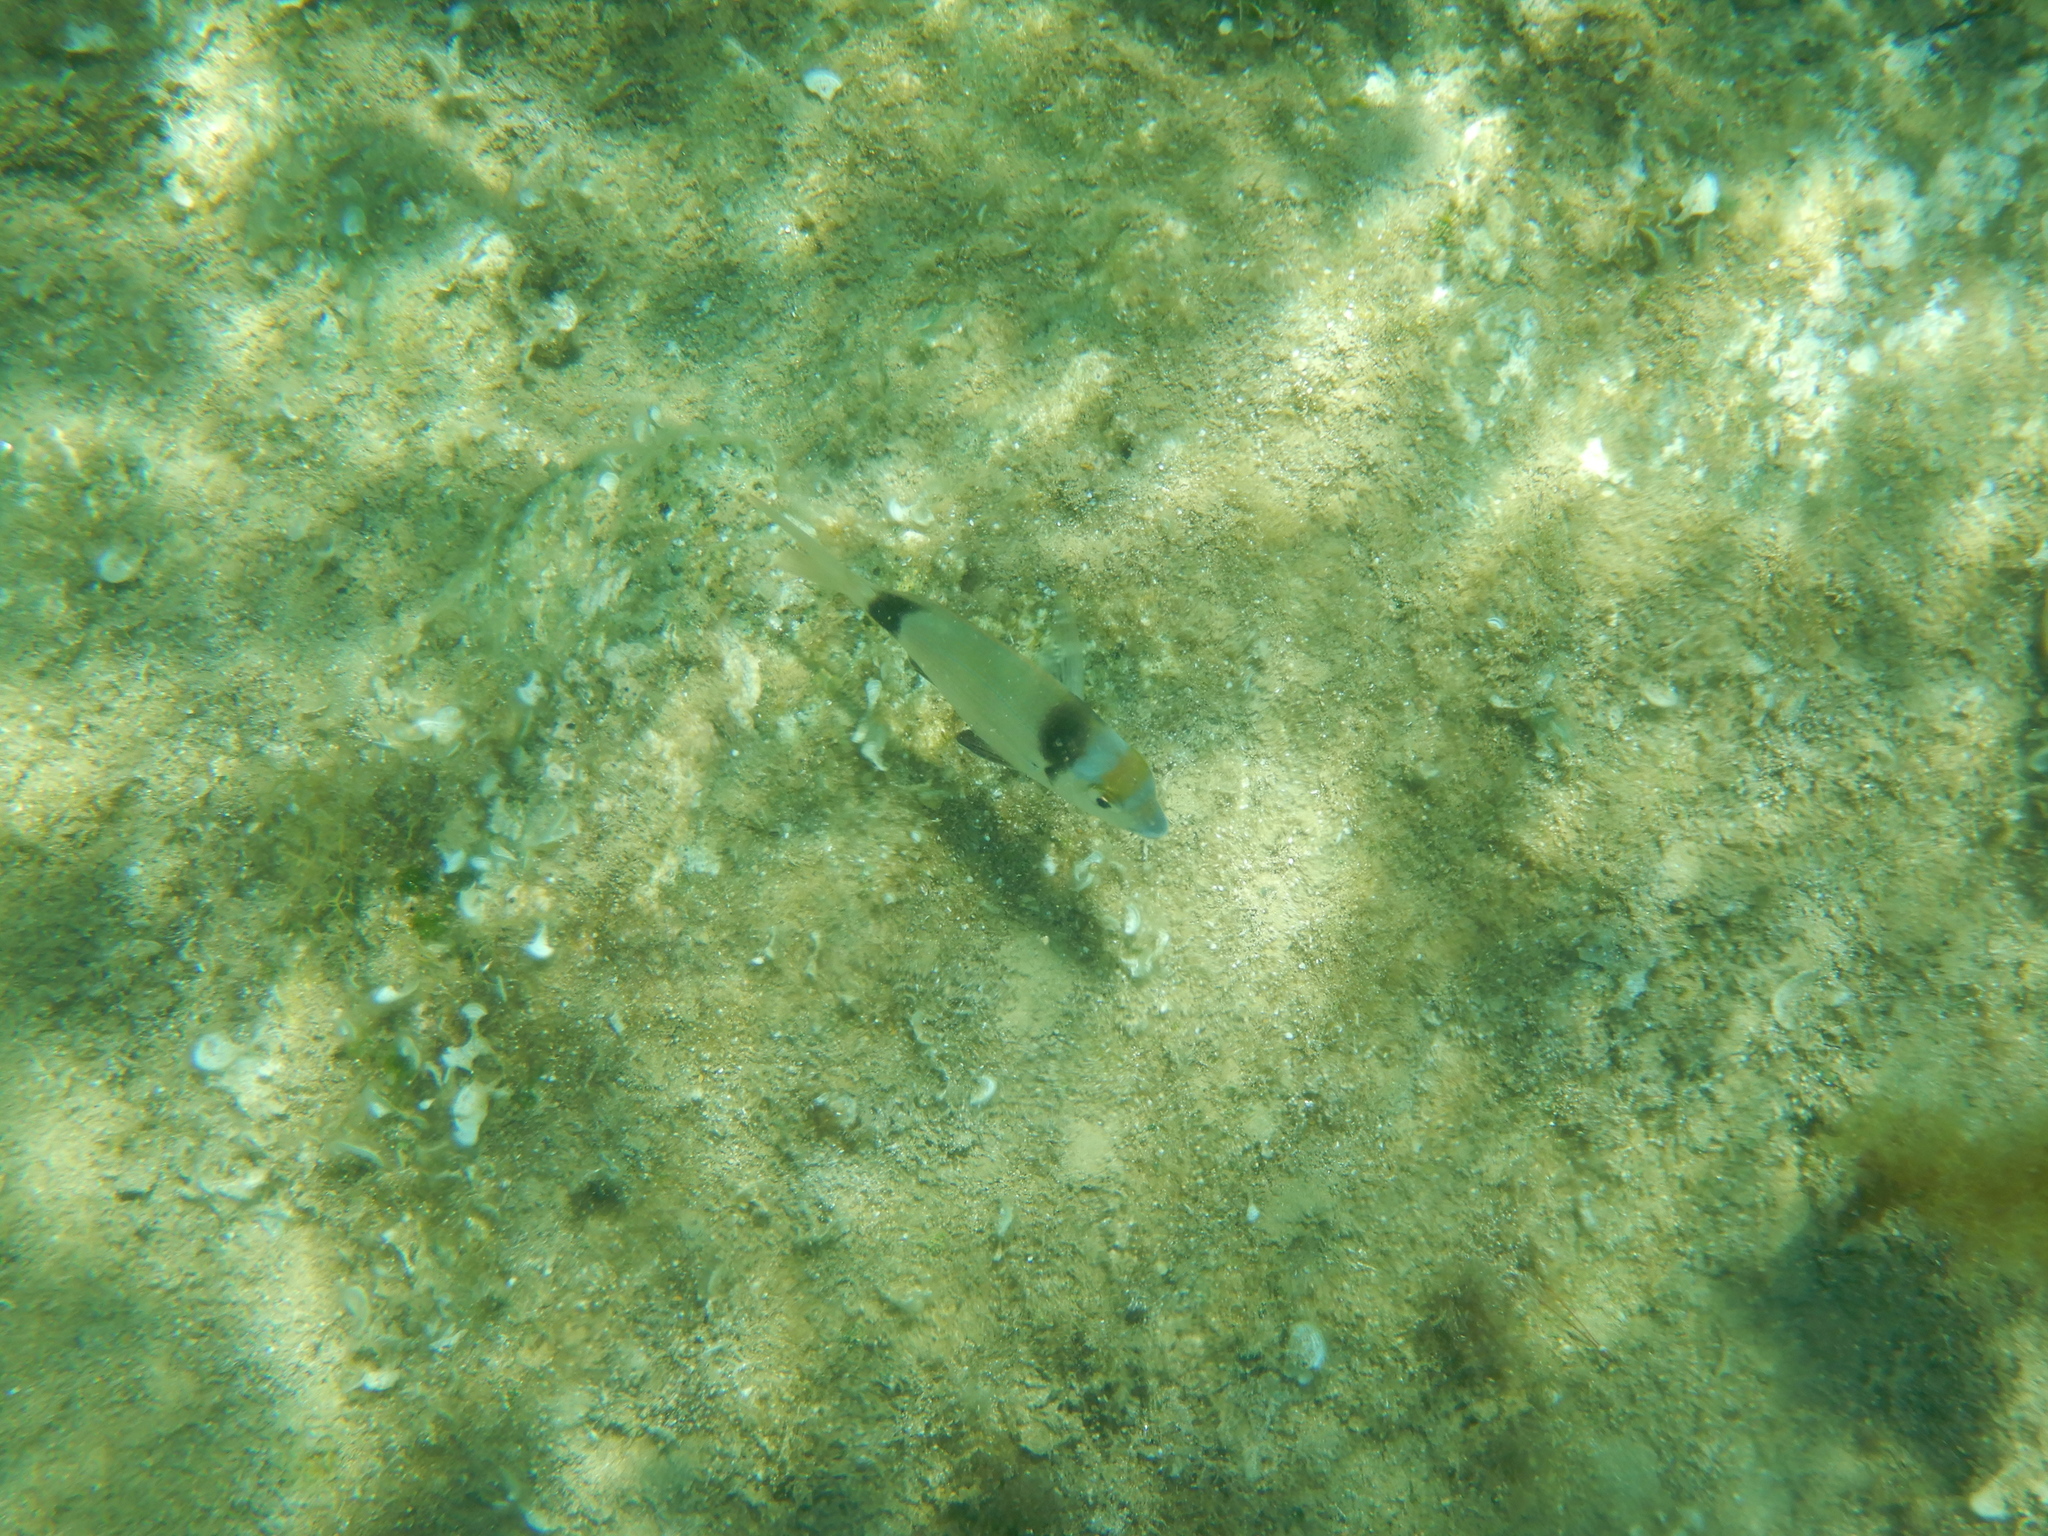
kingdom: Animalia
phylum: Chordata
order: Perciformes
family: Sparidae
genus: Diplodus
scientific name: Diplodus vulgaris
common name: Common two-banded seabream
